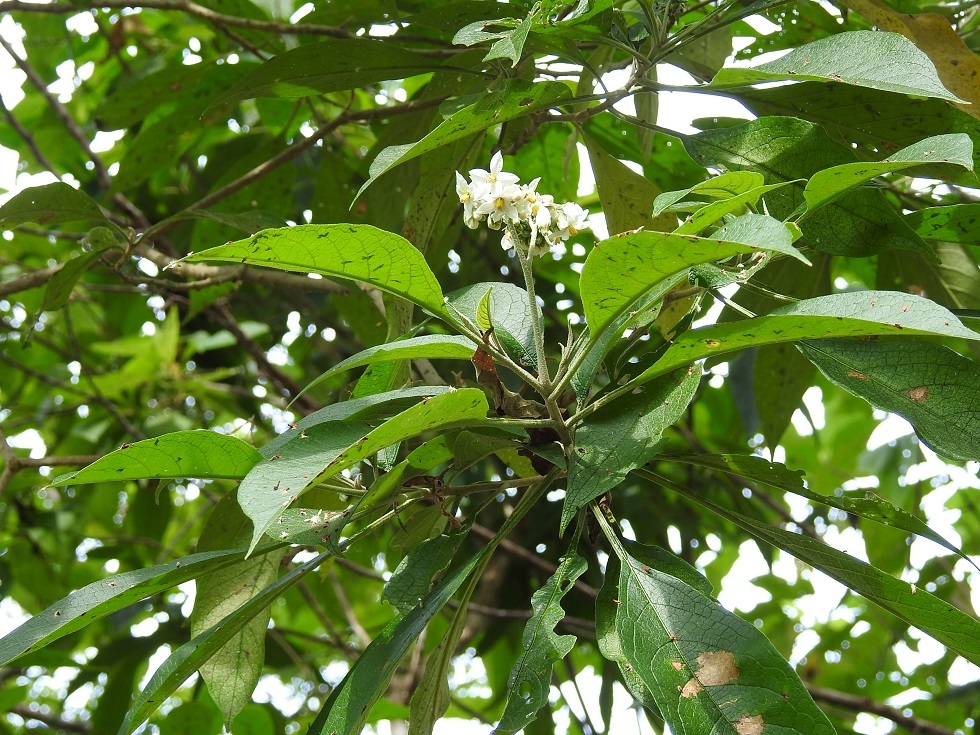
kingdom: Plantae
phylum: Tracheophyta
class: Magnoliopsida
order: Solanales
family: Solanaceae
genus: Solanum
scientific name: Solanum erianthum
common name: Tobacco-tree
